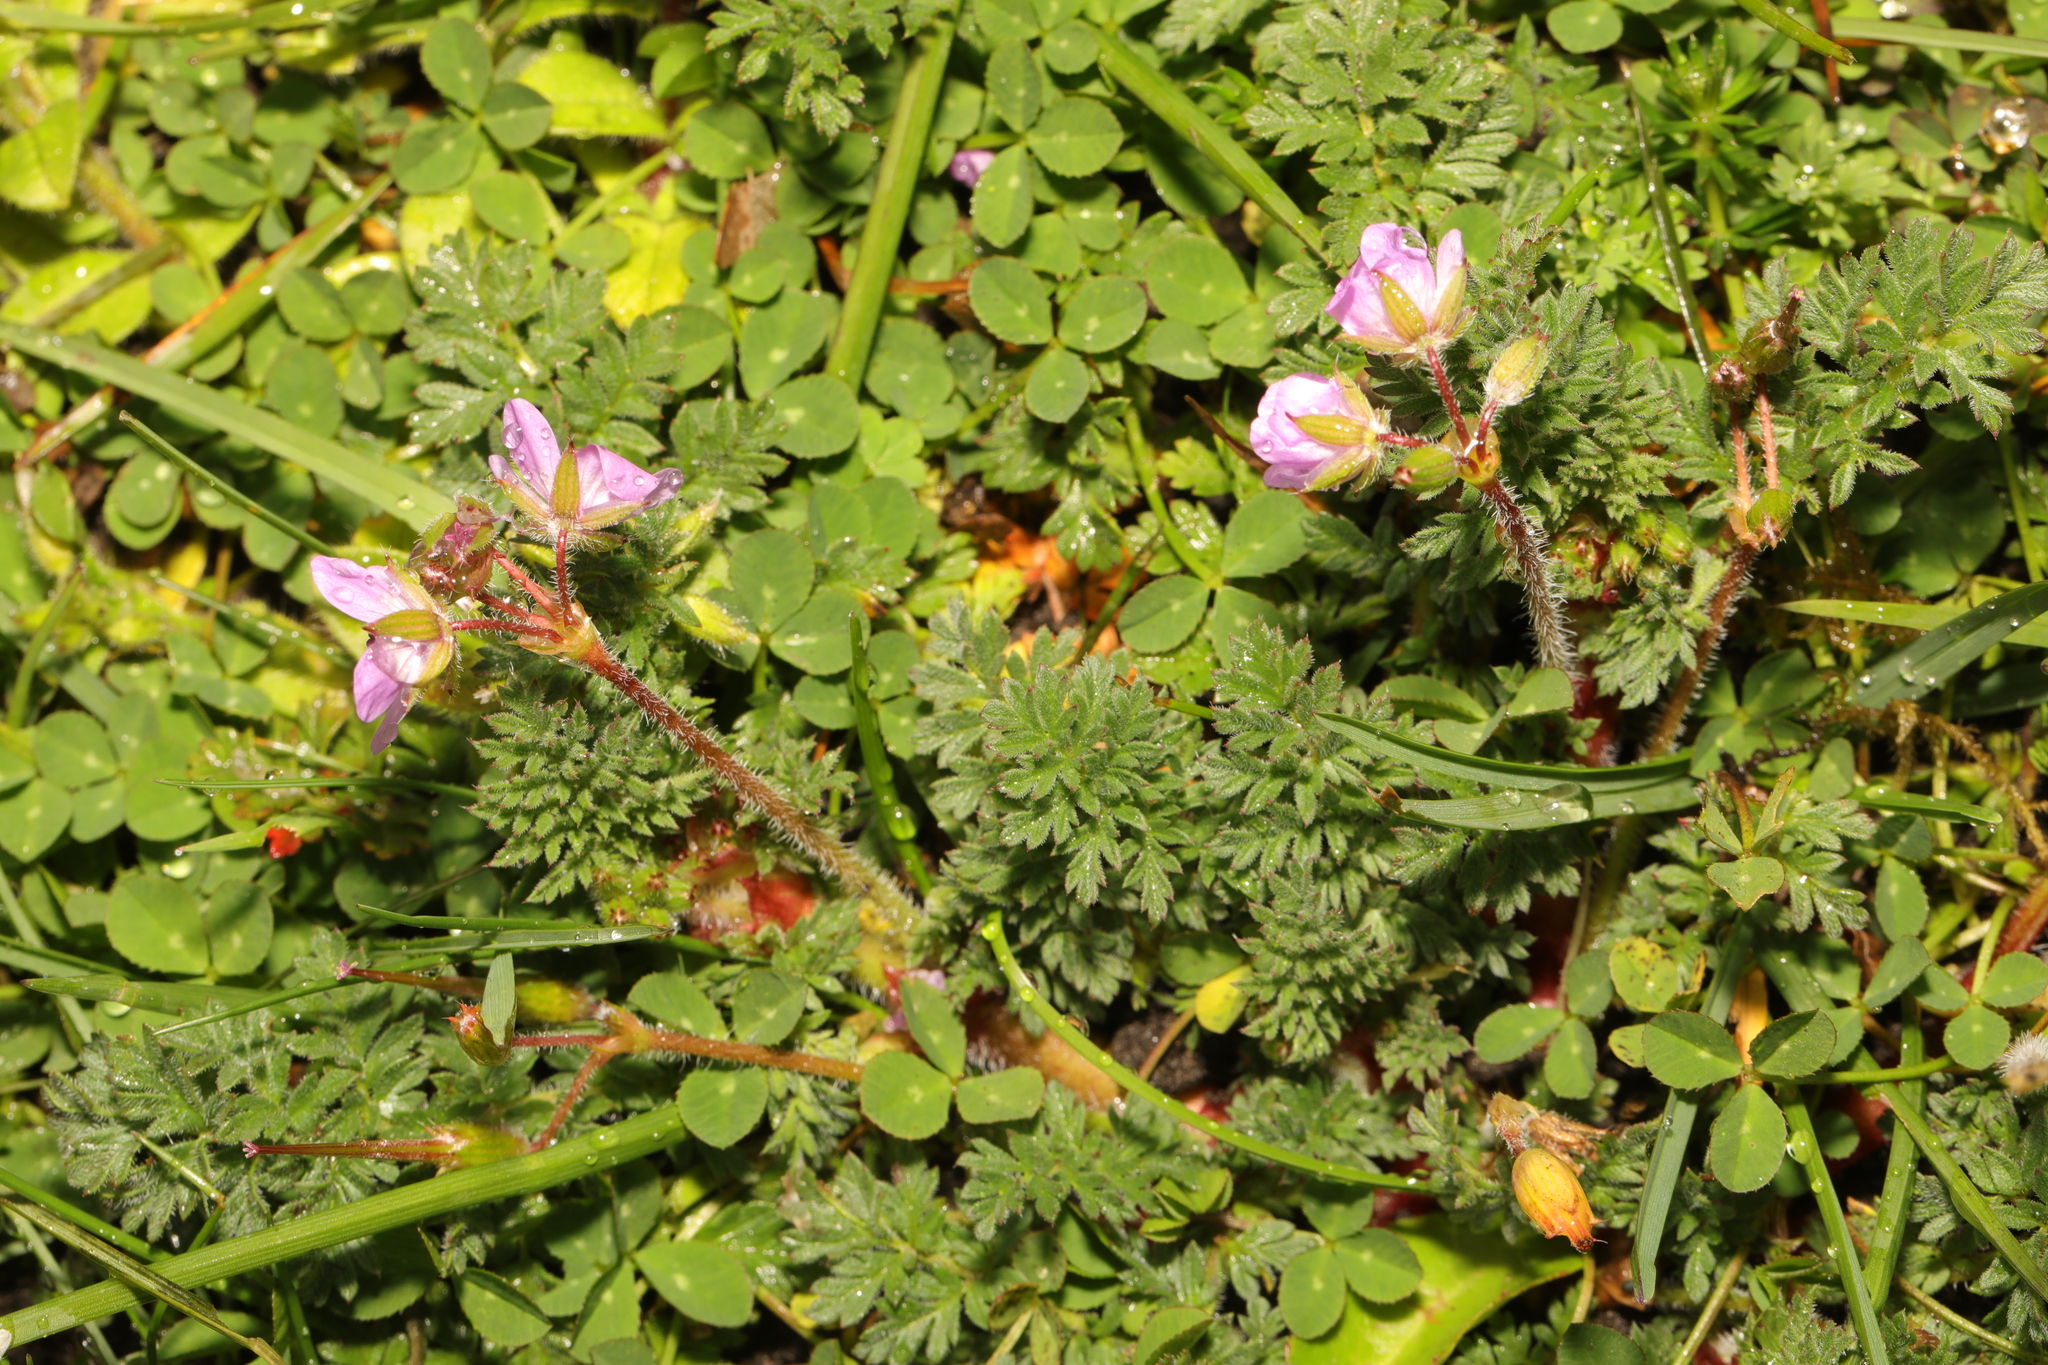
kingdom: Plantae
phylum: Tracheophyta
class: Magnoliopsida
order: Geraniales
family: Geraniaceae
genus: Erodium
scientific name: Erodium cicutarium
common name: Common stork's-bill
